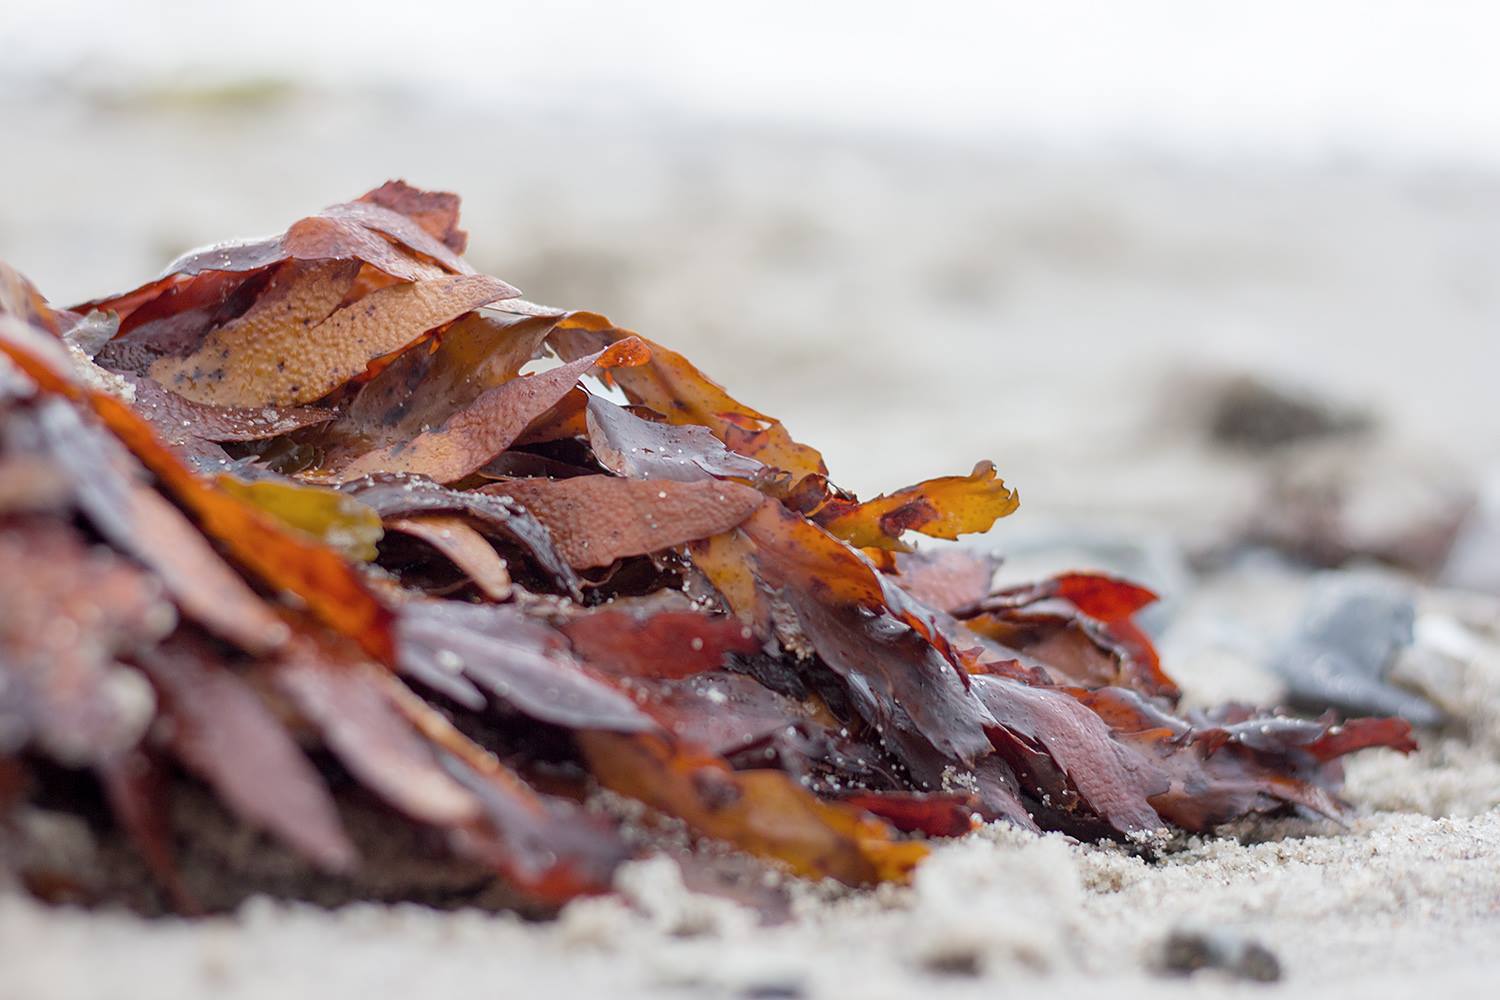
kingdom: Chromista
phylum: Ochrophyta
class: Phaeophyceae
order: Fucales
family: Fucaceae
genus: Fucus
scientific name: Fucus serratus
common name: Toothed wrack
